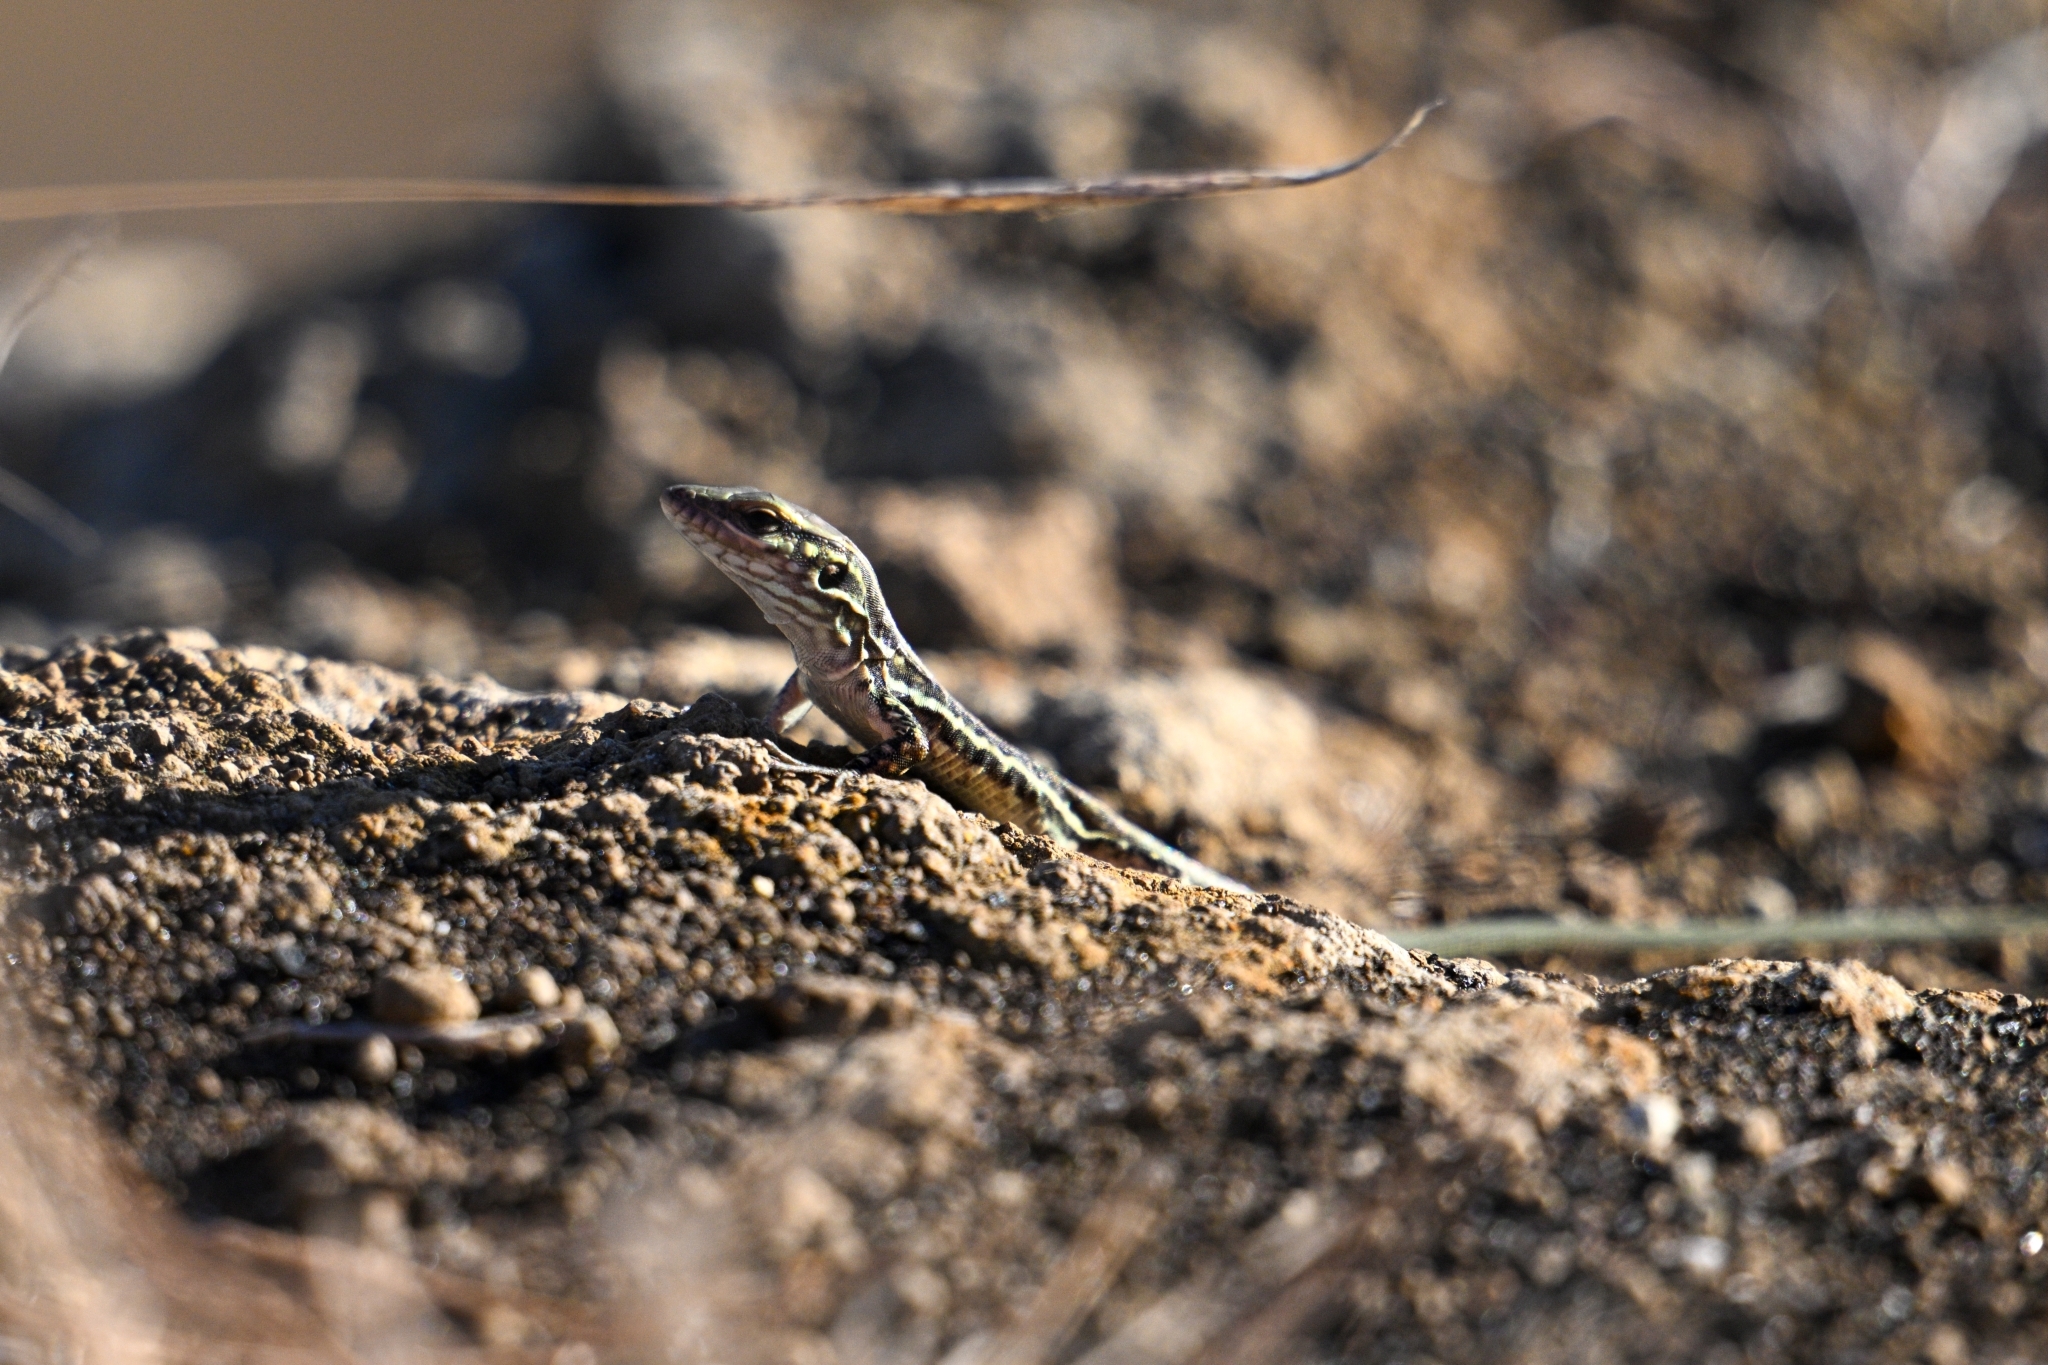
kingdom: Animalia
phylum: Chordata
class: Squamata
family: Lacertidae
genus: Gallotia
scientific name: Gallotia galloti
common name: Gallot's lizard
